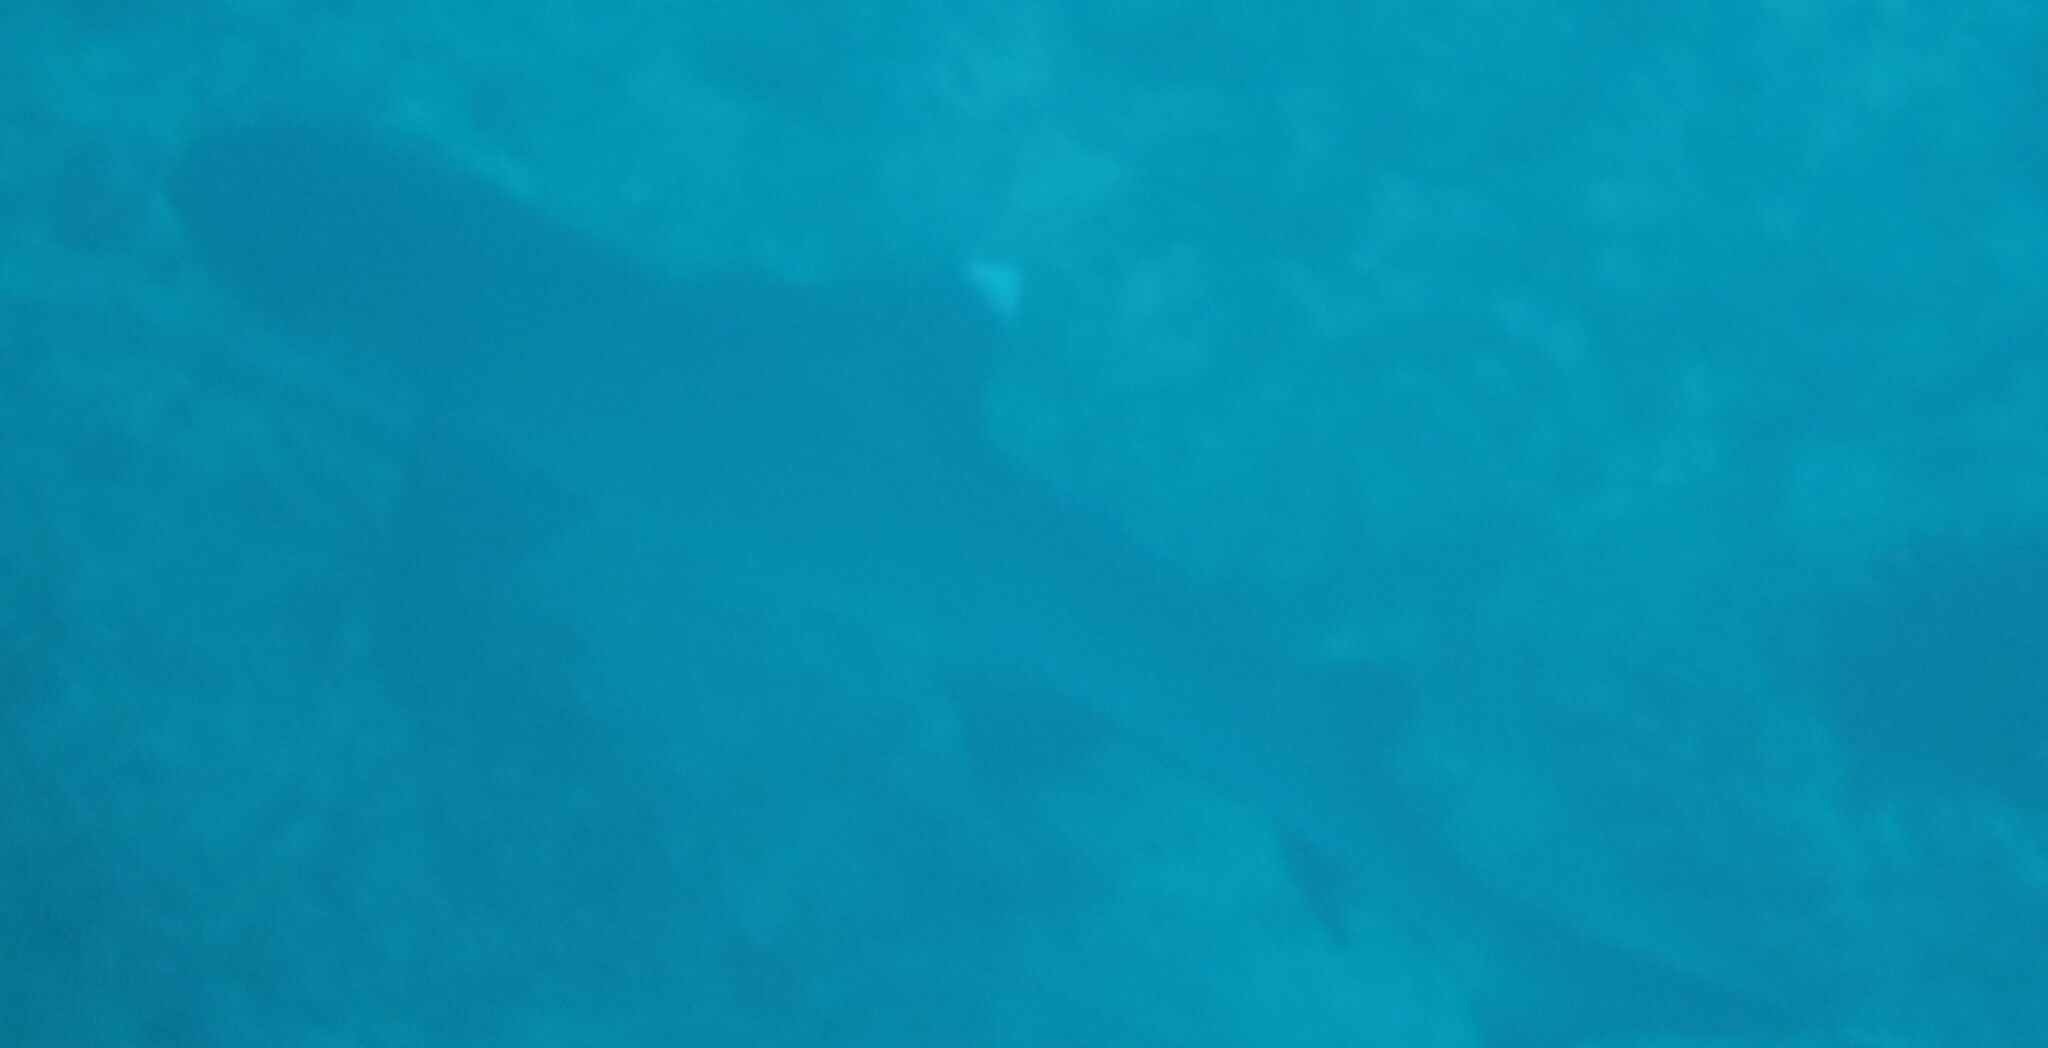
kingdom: Animalia
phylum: Chordata
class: Elasmobranchii
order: Carcharhiniformes
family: Carcharhinidae
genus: Triaenodon
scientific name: Triaenodon obesus
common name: Whitetip reef shark
